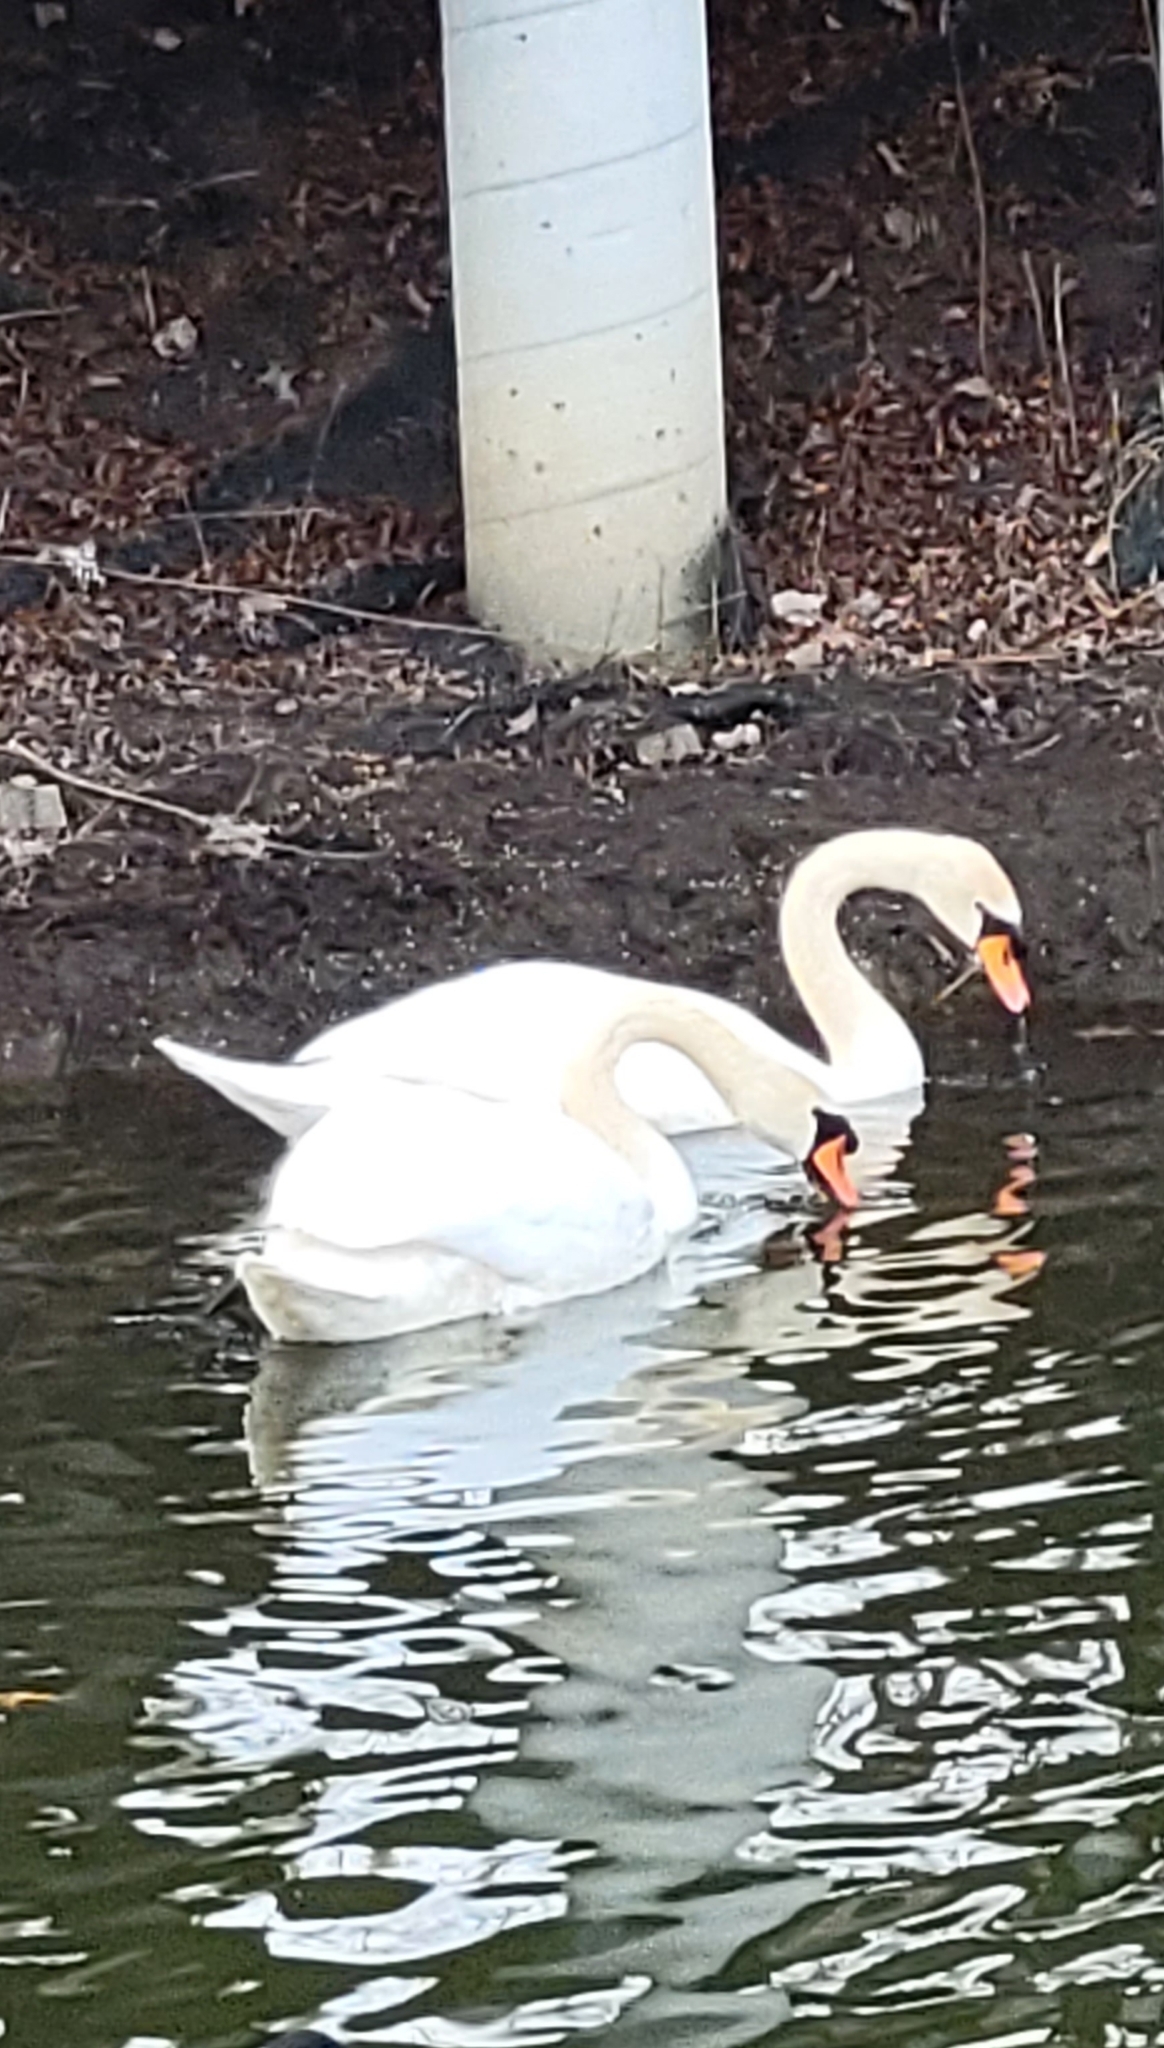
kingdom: Animalia
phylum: Chordata
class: Aves
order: Anseriformes
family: Anatidae
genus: Cygnus
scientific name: Cygnus olor
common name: Mute swan
